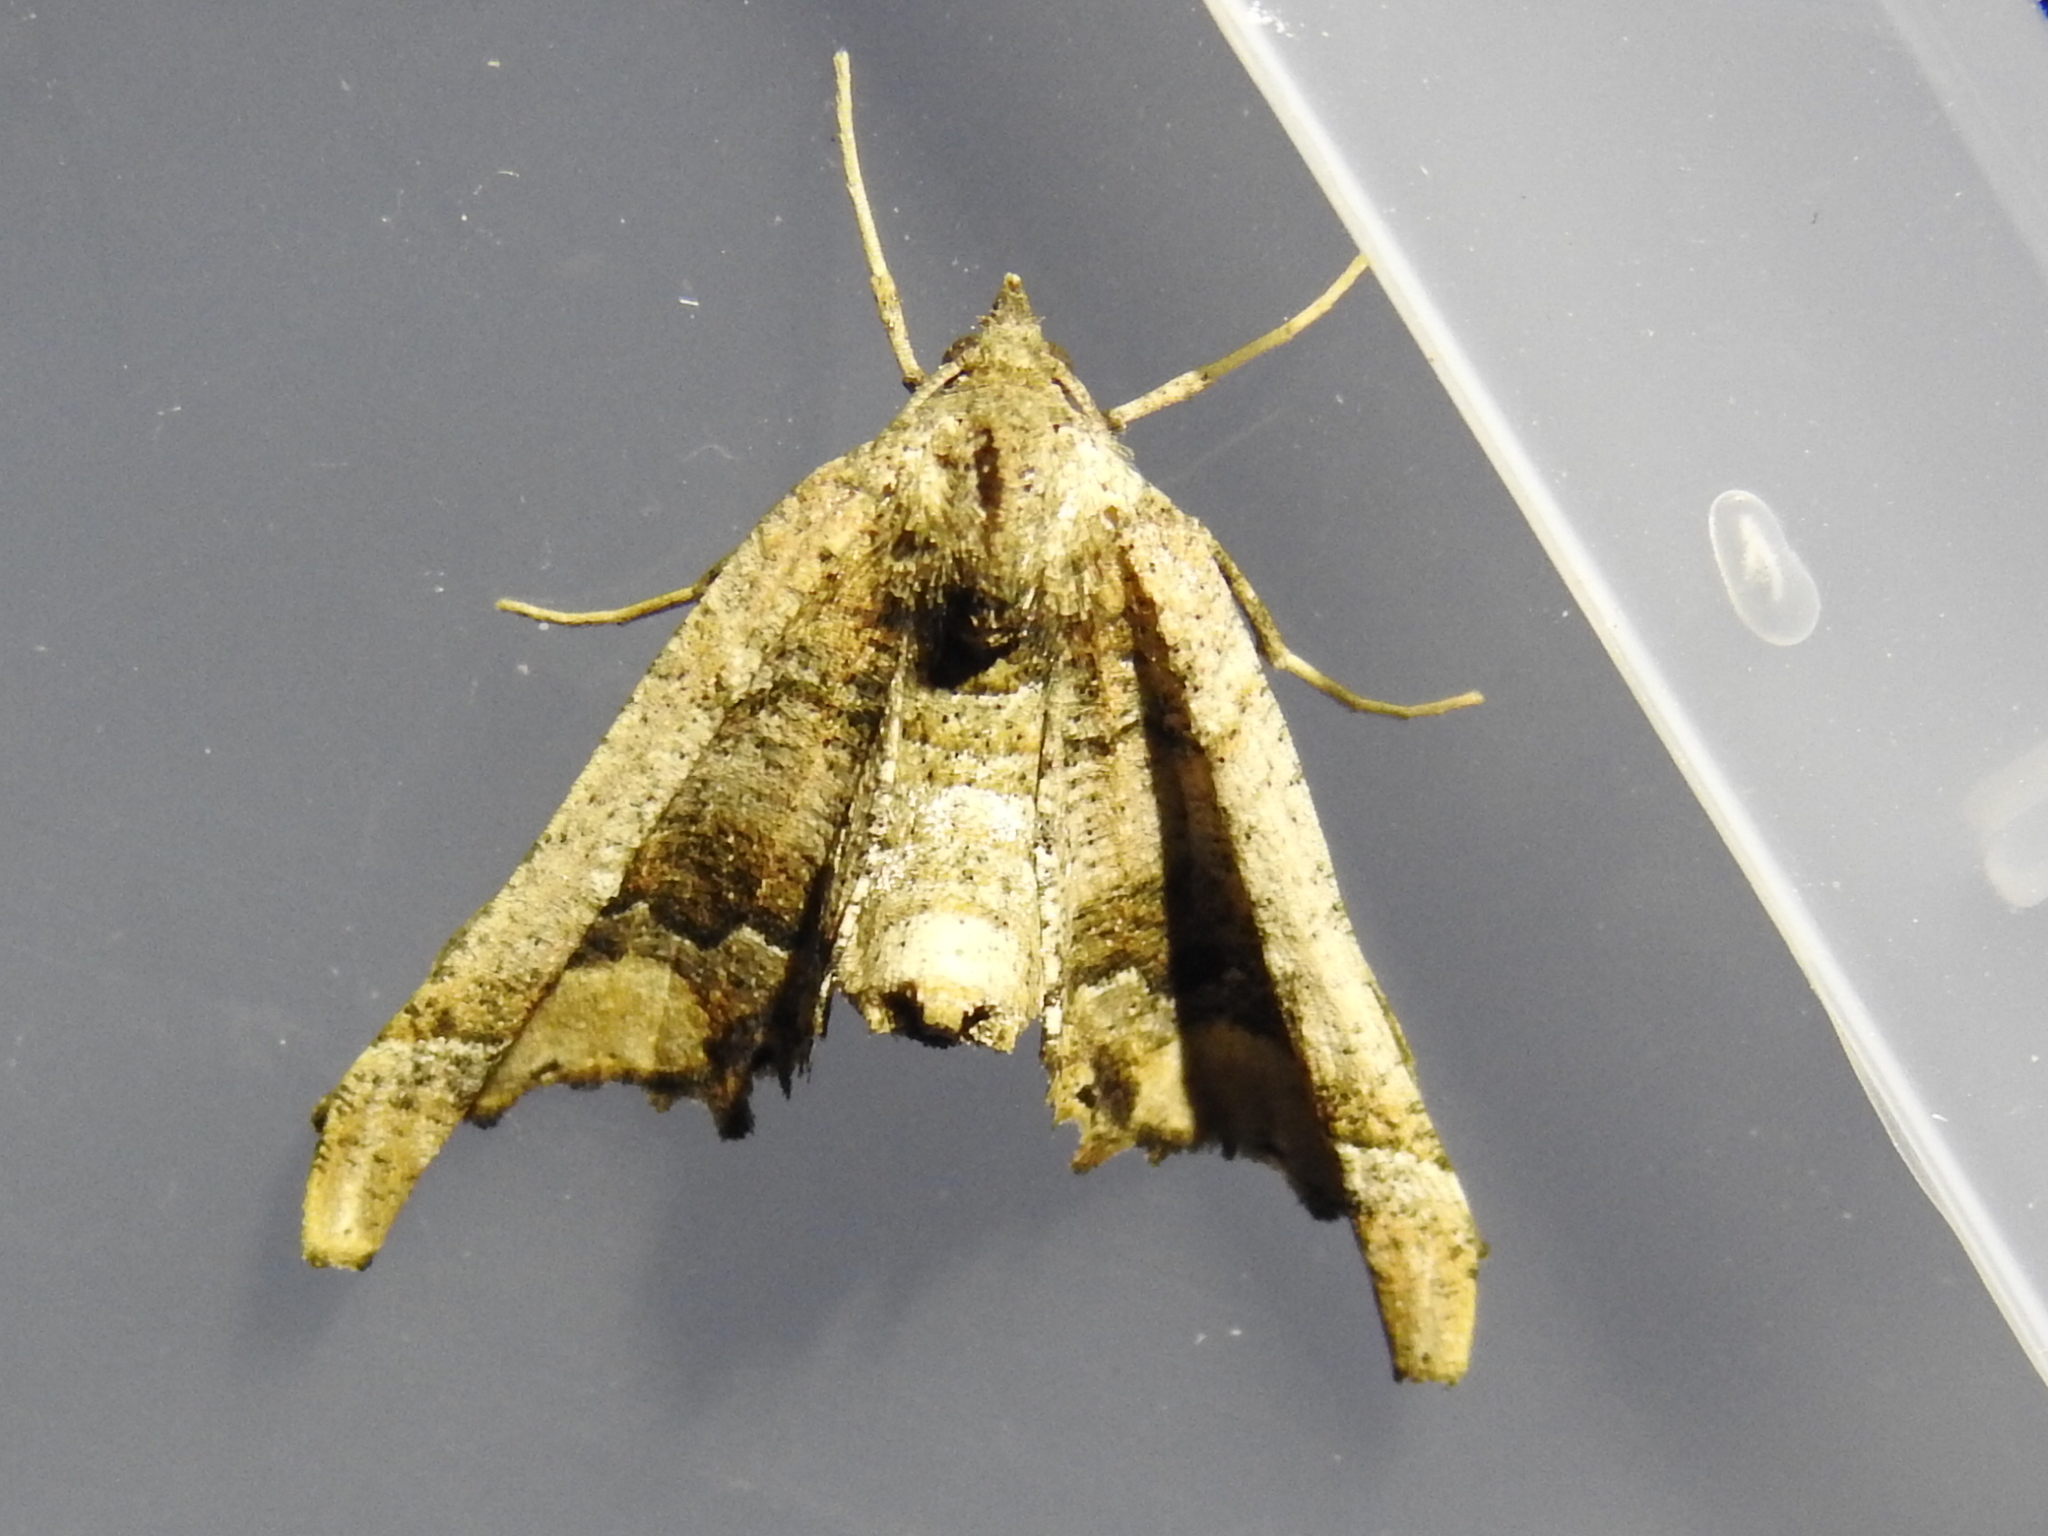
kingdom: Animalia
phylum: Arthropoda
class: Insecta
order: Lepidoptera
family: Geometridae
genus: Pero
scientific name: Pero meskaria
